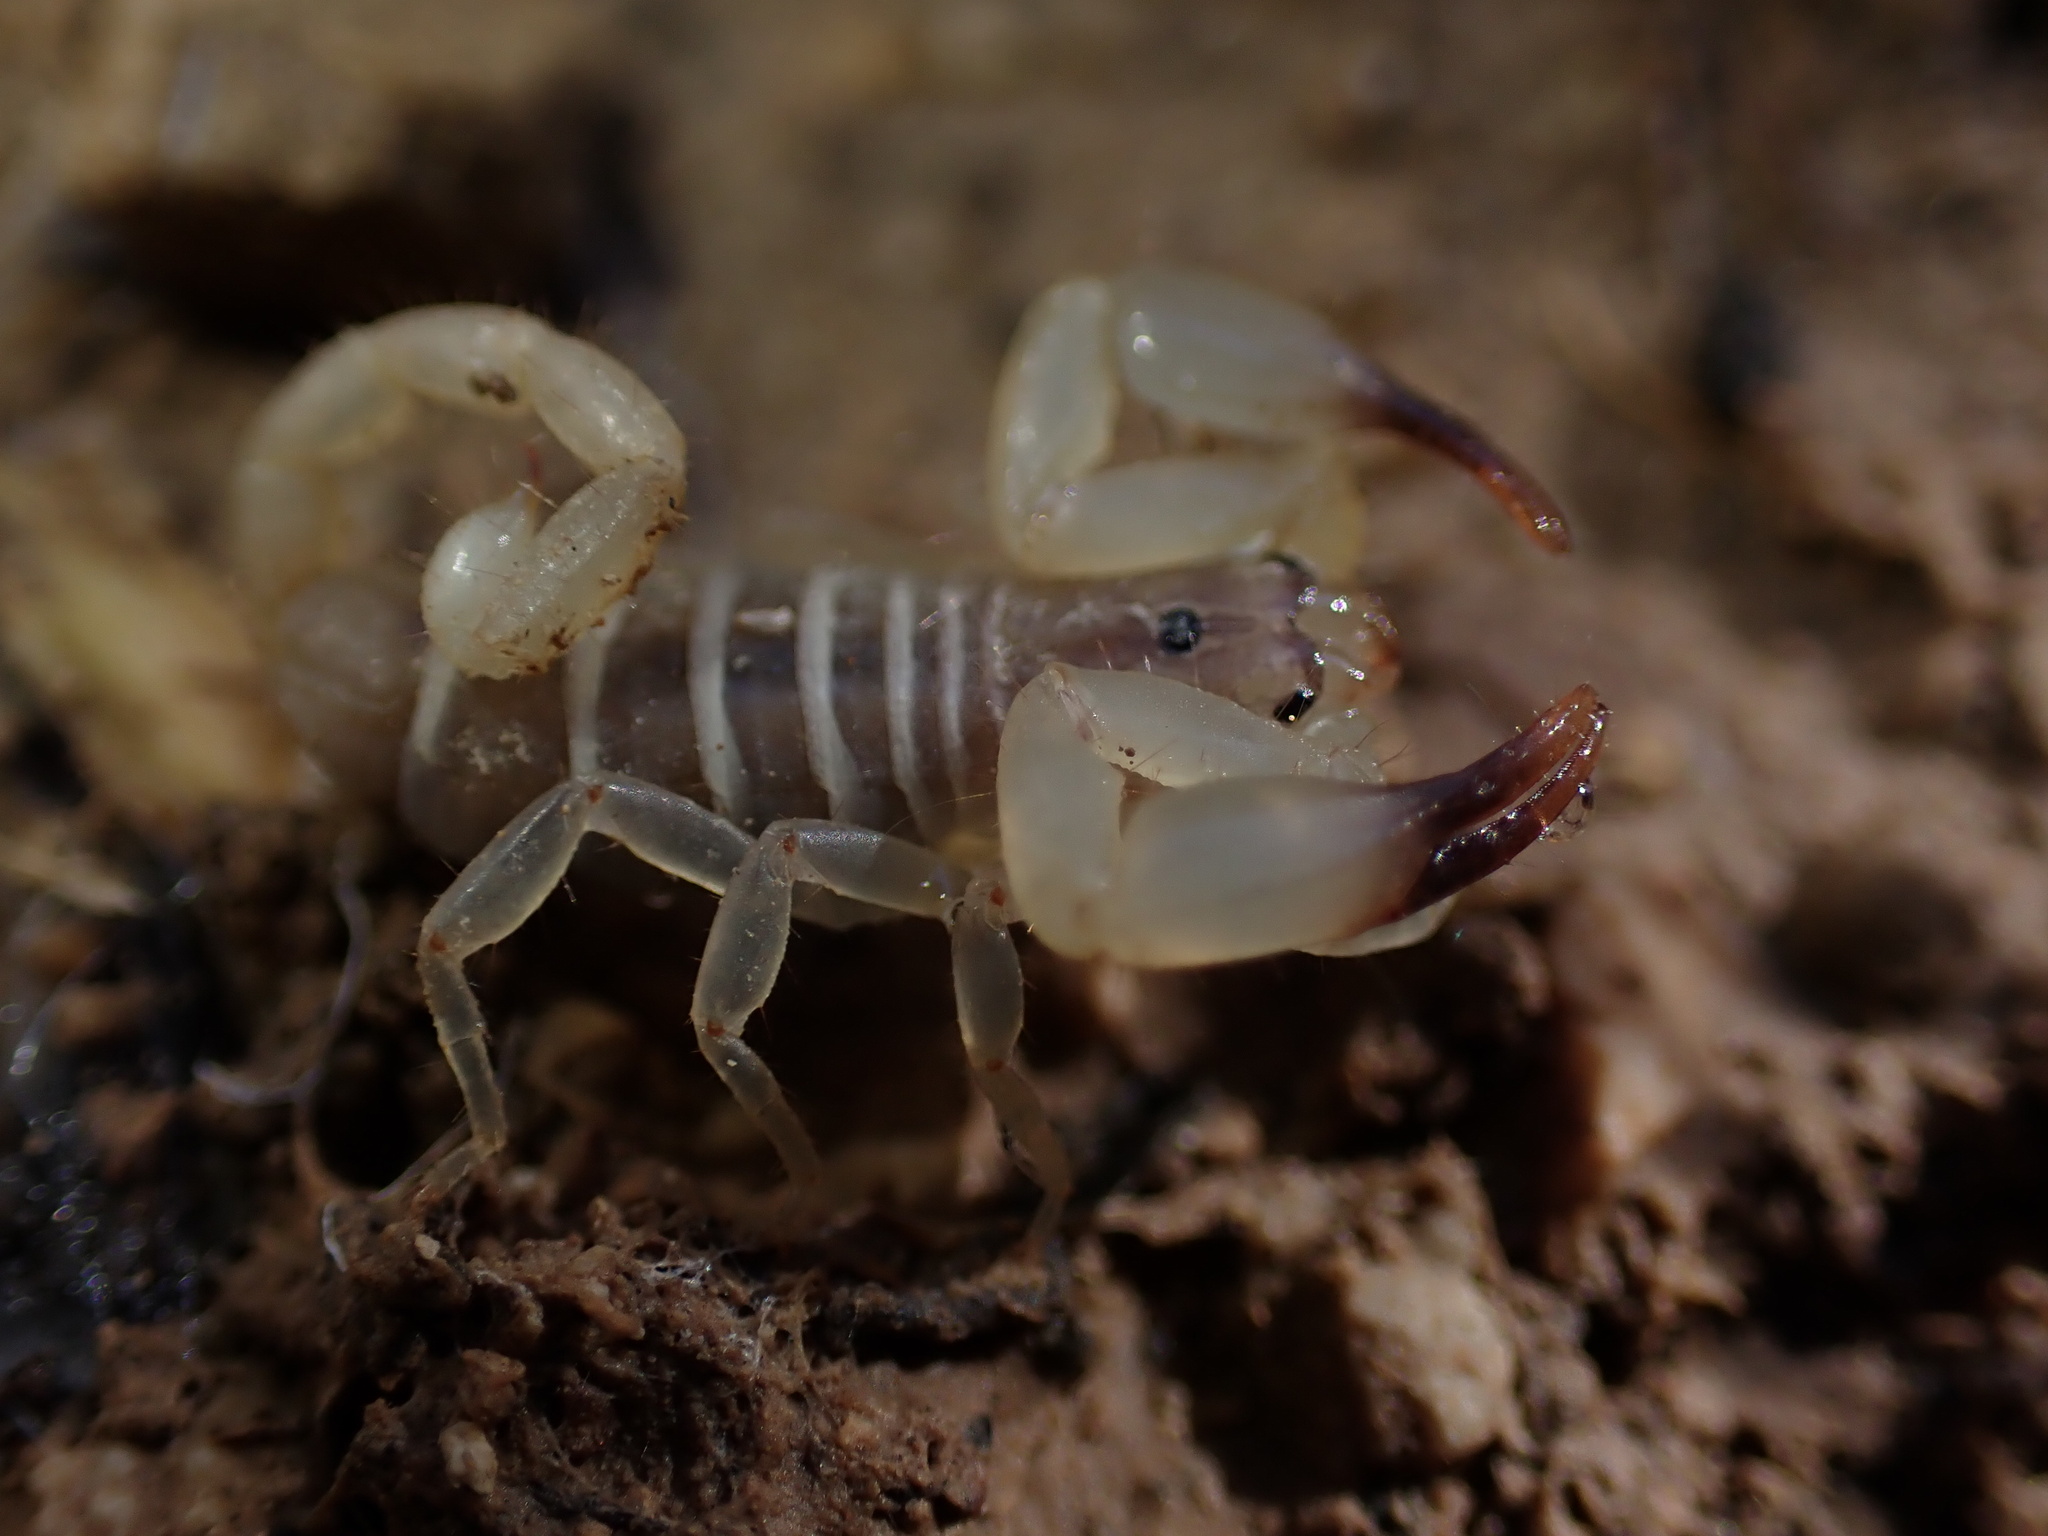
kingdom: Animalia
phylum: Arthropoda
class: Arachnida
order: Scorpiones
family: Hemiscorpiidae
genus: Hemiscorpius
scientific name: Hemiscorpius lepturus
